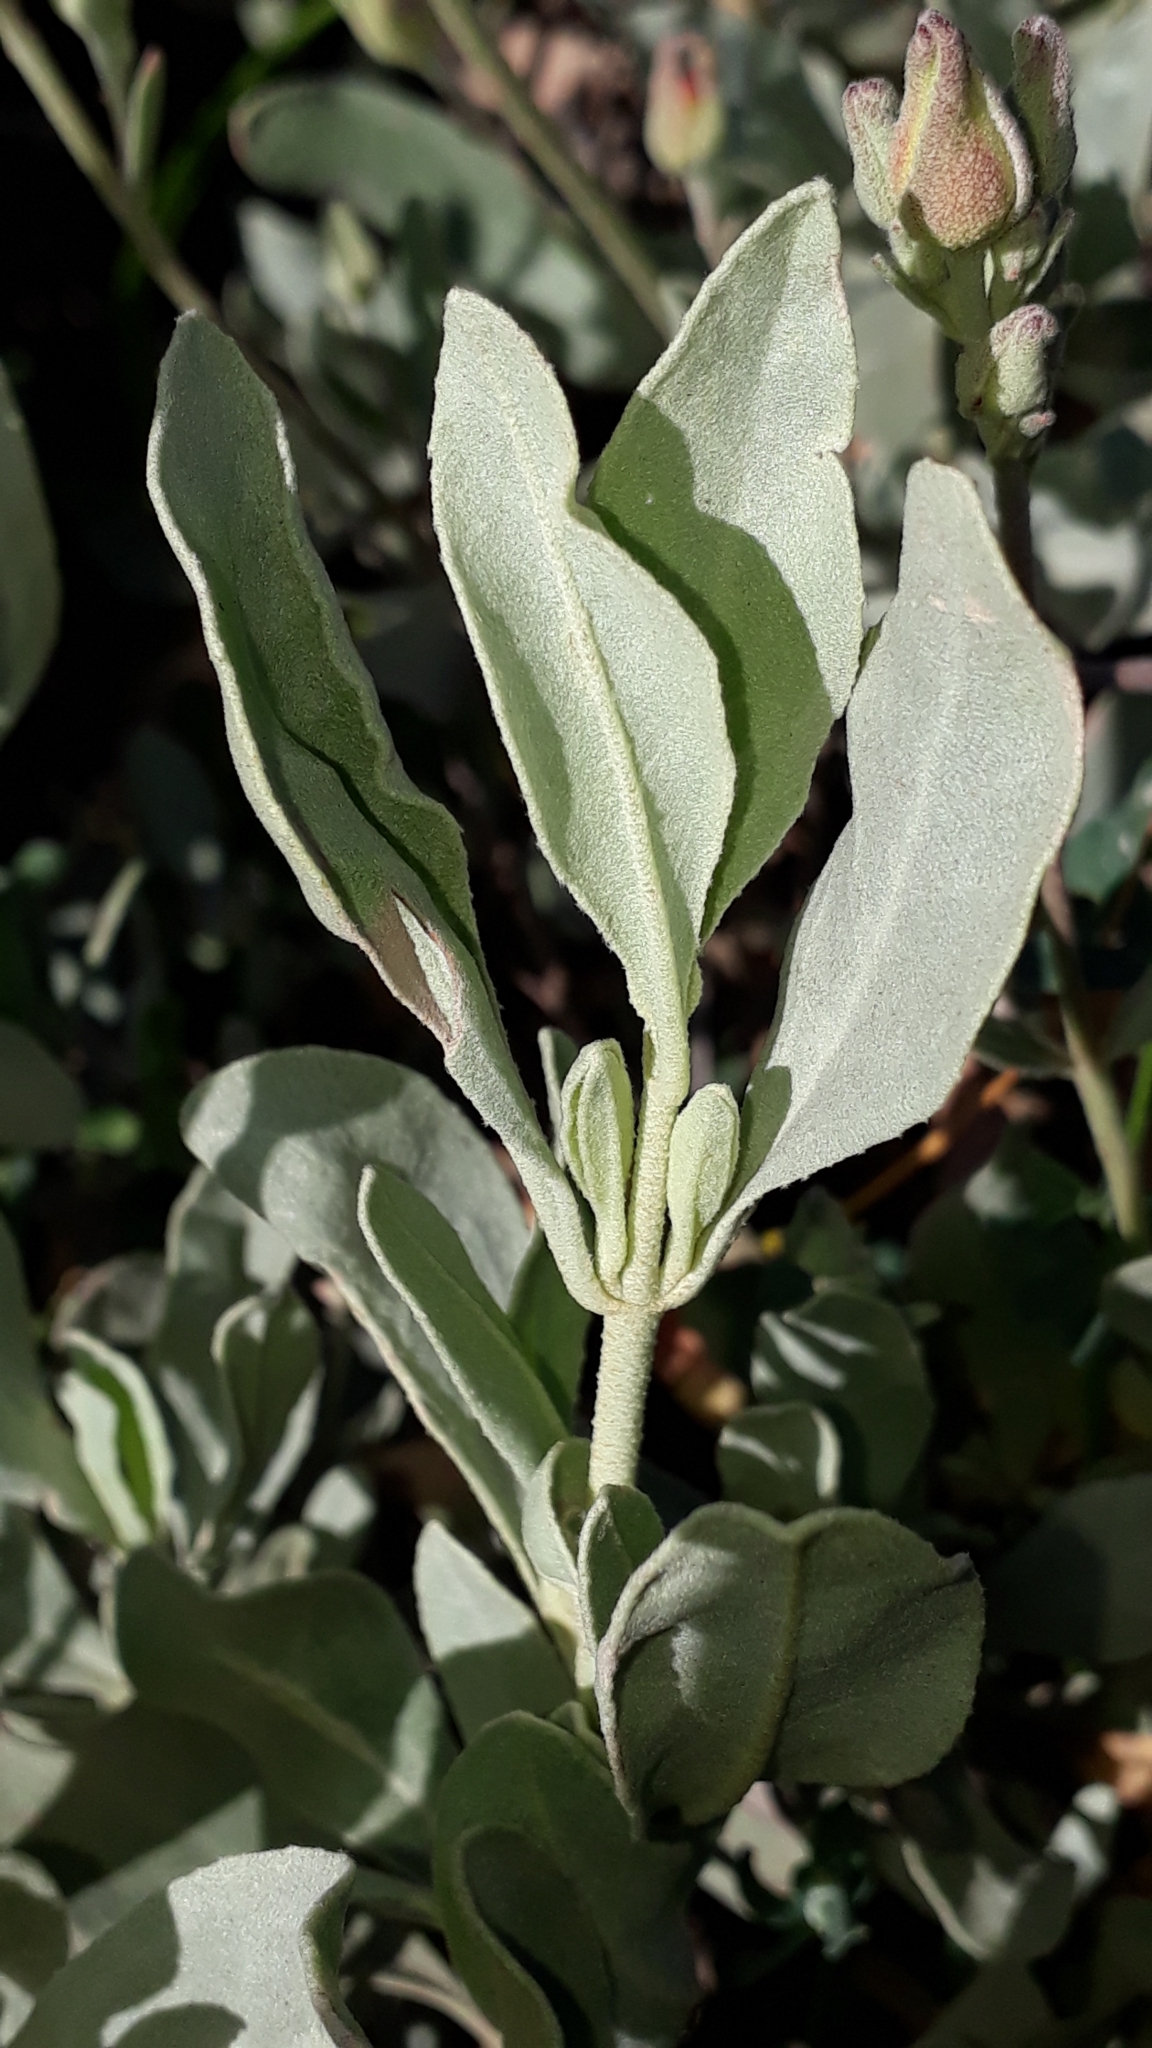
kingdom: Plantae
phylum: Tracheophyta
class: Magnoliopsida
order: Malvales
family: Cistaceae
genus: Halimium
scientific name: Halimium halimifolium
